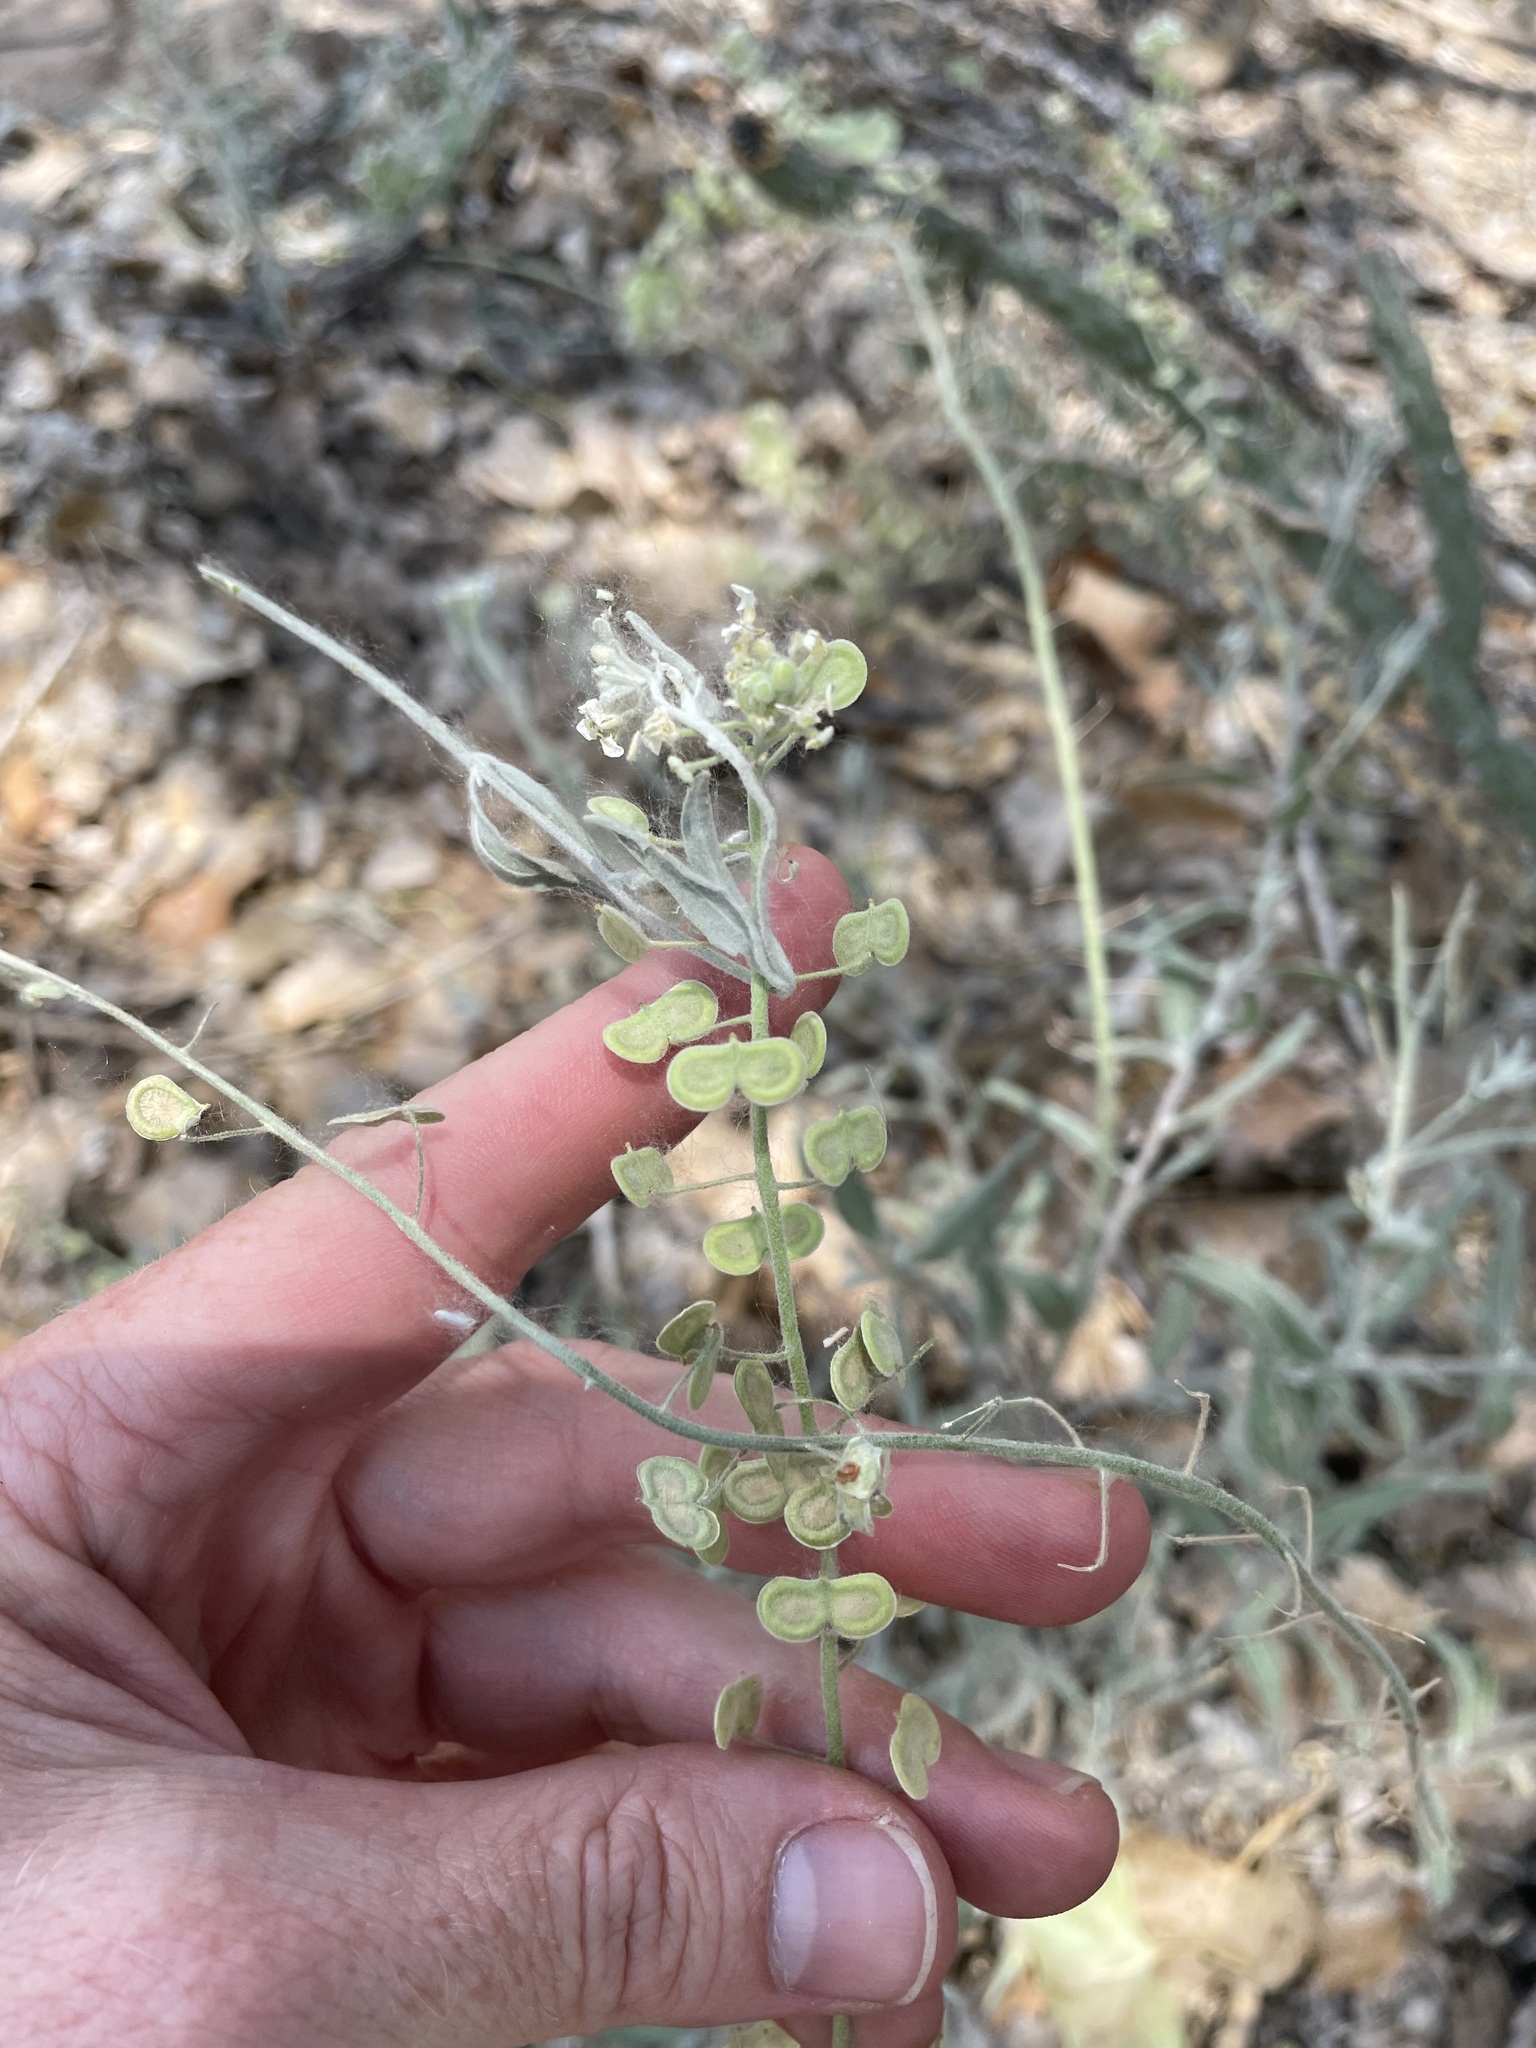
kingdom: Plantae
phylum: Tracheophyta
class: Magnoliopsida
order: Brassicales
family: Brassicaceae
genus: Dimorphocarpa
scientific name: Dimorphocarpa wislizenii
